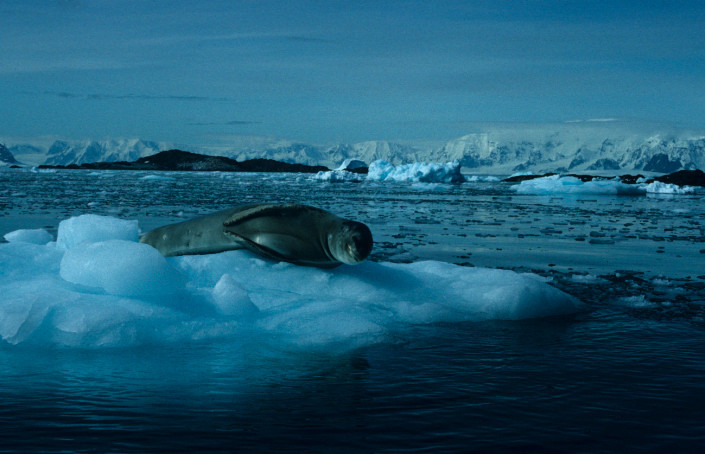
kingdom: Animalia
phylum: Chordata
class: Mammalia
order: Carnivora
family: Phocidae
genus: Hydrurga
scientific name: Hydrurga leptonyx
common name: Leopard seal
